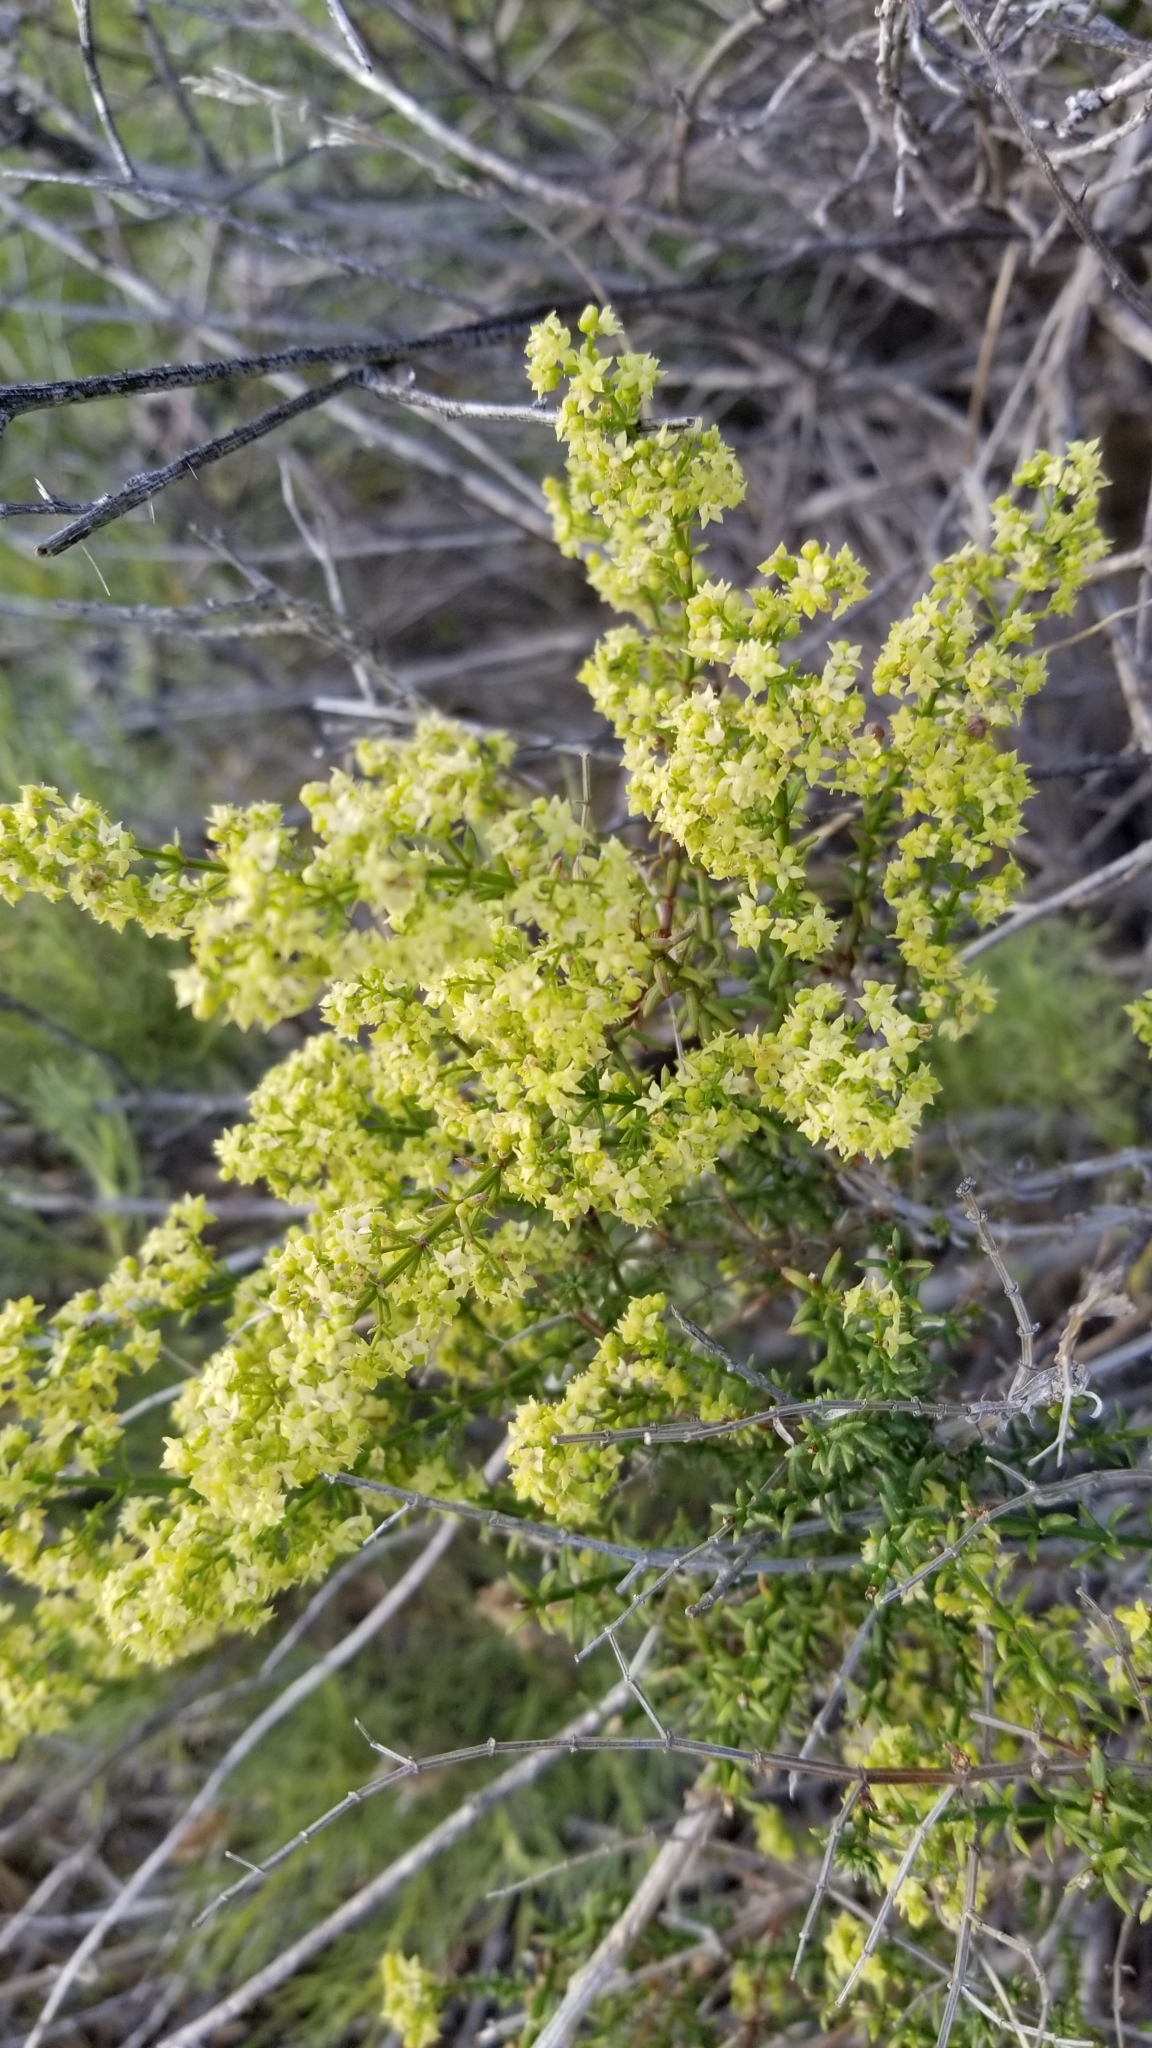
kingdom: Plantae
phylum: Tracheophyta
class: Magnoliopsida
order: Gentianales
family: Rubiaceae
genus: Galium
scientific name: Galium angustifolium
